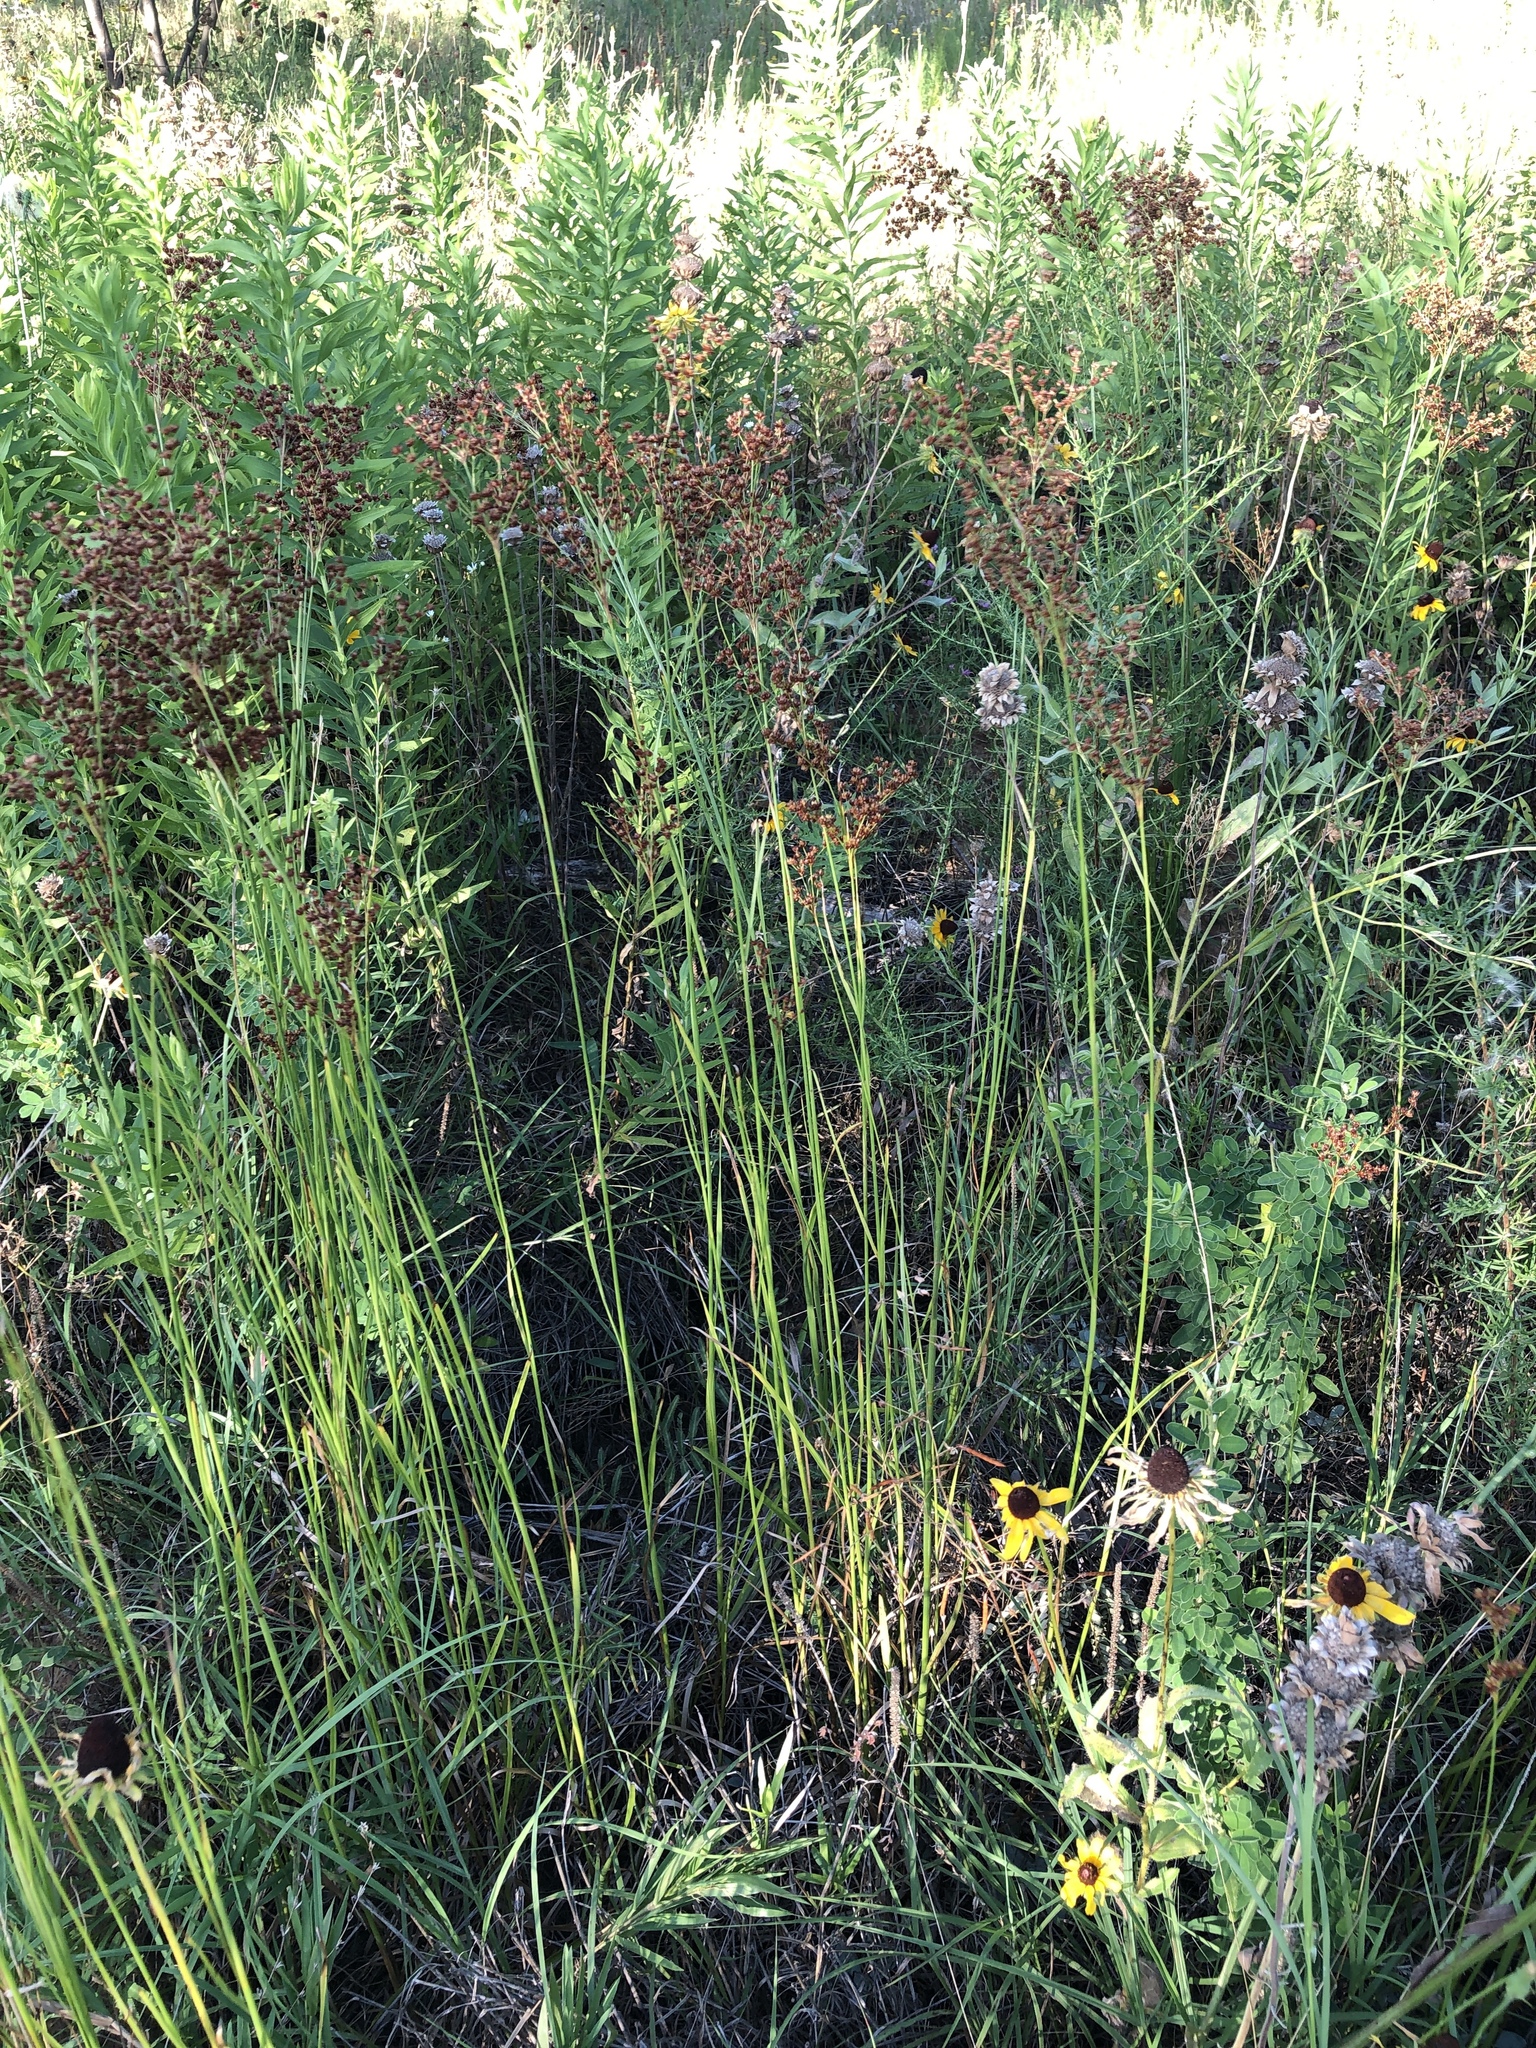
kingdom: Plantae
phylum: Tracheophyta
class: Liliopsida
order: Poales
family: Juncaceae
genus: Juncus
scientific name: Juncus marginatus
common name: Grass-leaf rush
